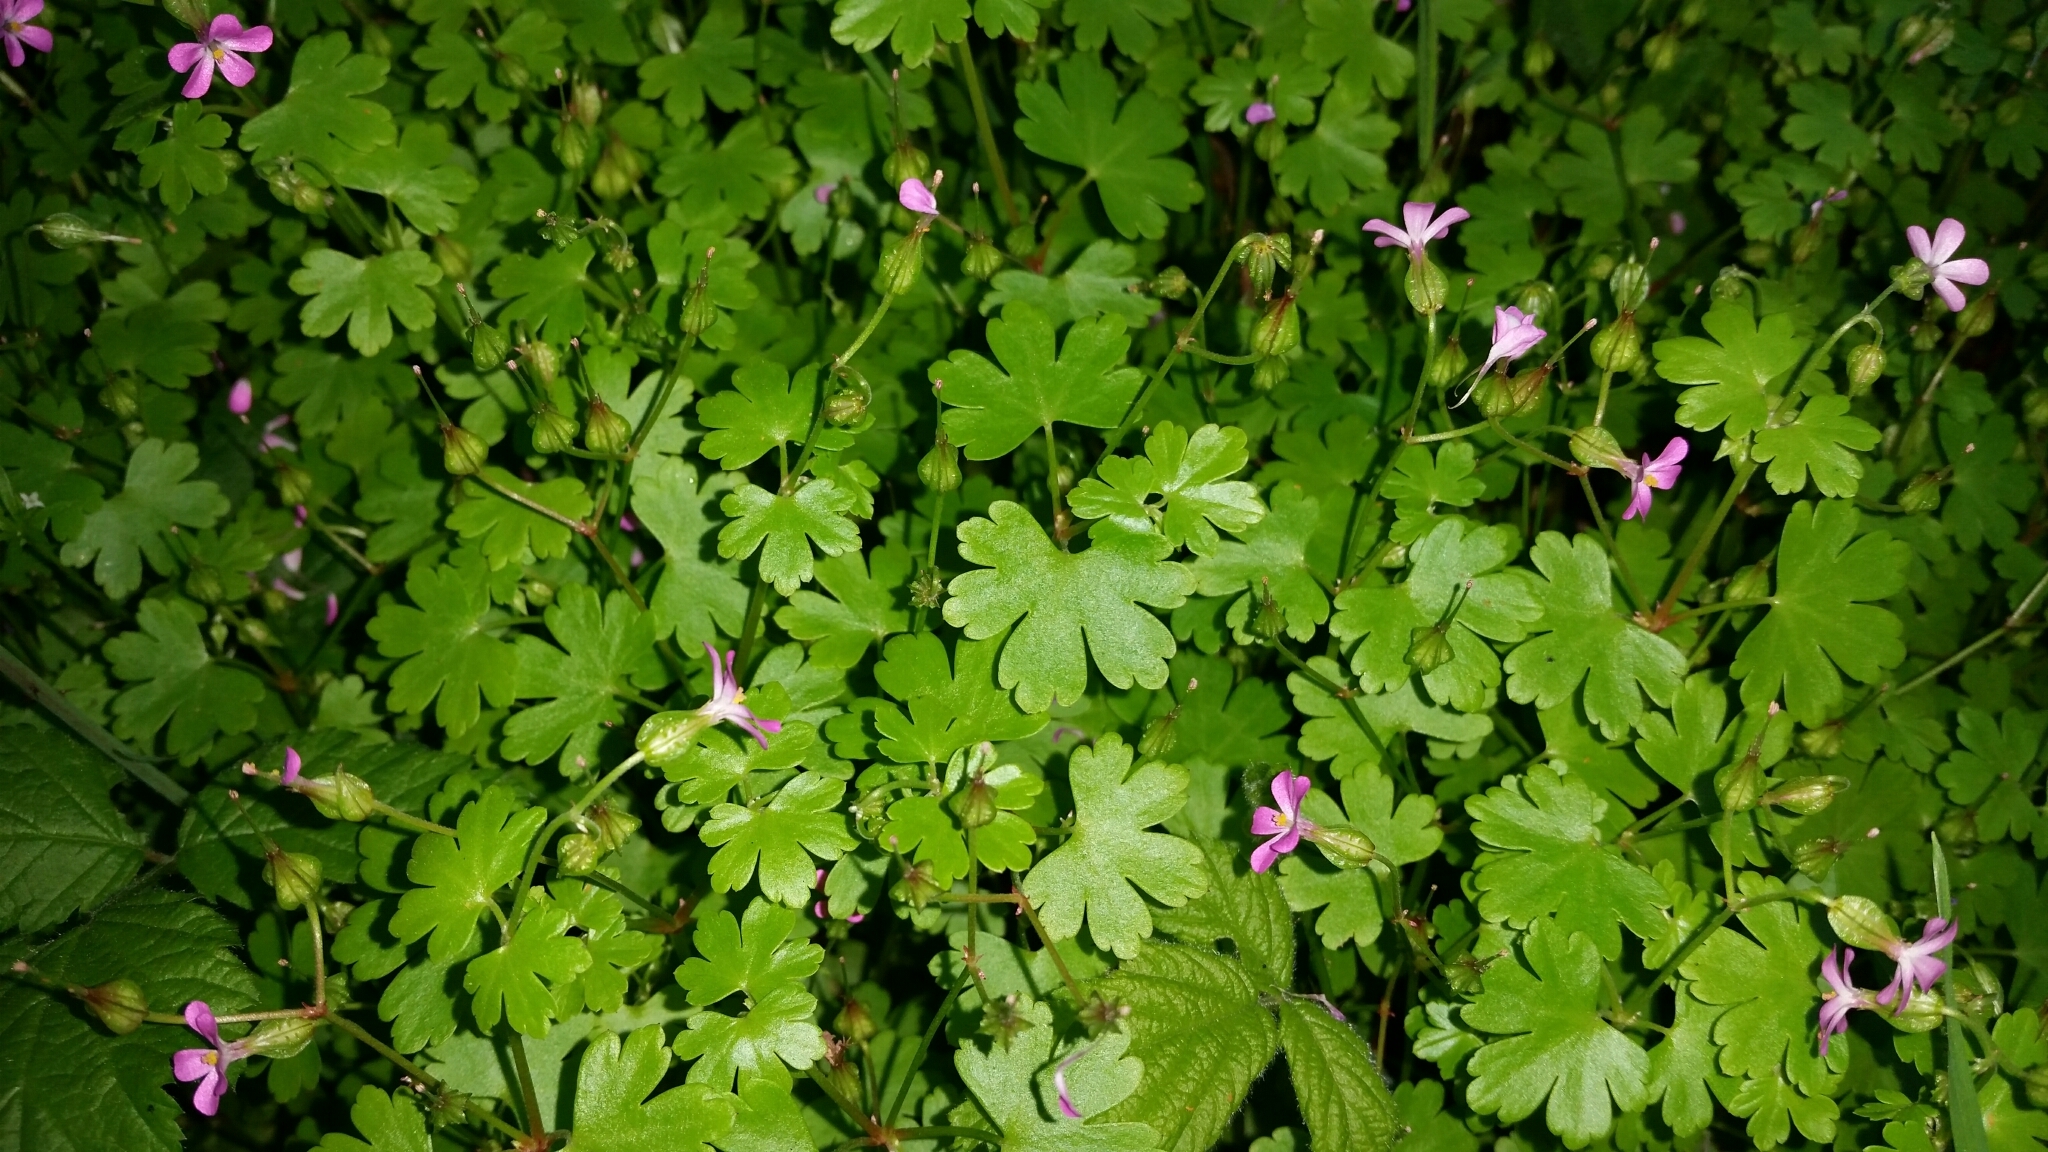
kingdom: Plantae
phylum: Tracheophyta
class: Magnoliopsida
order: Geraniales
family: Geraniaceae
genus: Geranium
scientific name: Geranium lucidum
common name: Shining crane's-bill
